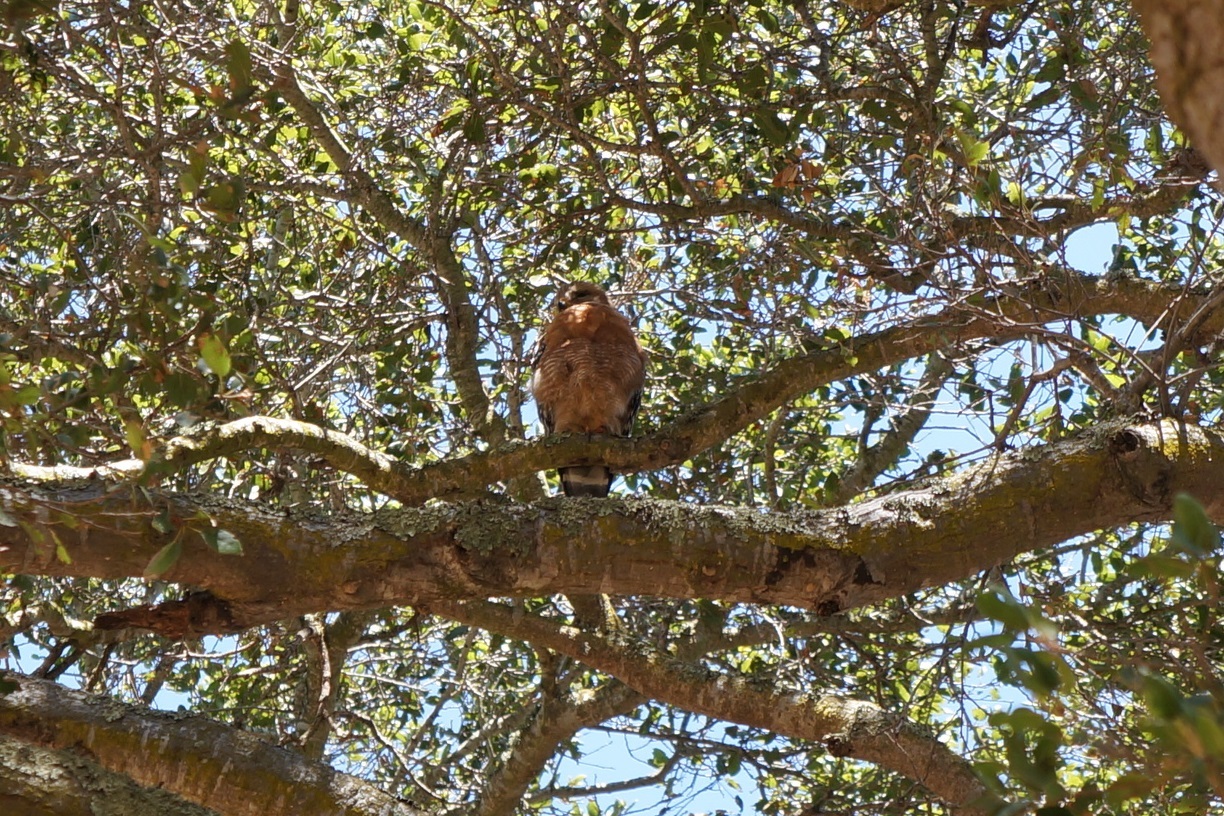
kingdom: Animalia
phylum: Chordata
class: Aves
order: Accipitriformes
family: Accipitridae
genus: Buteo
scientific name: Buteo lineatus
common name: Red-shouldered hawk
